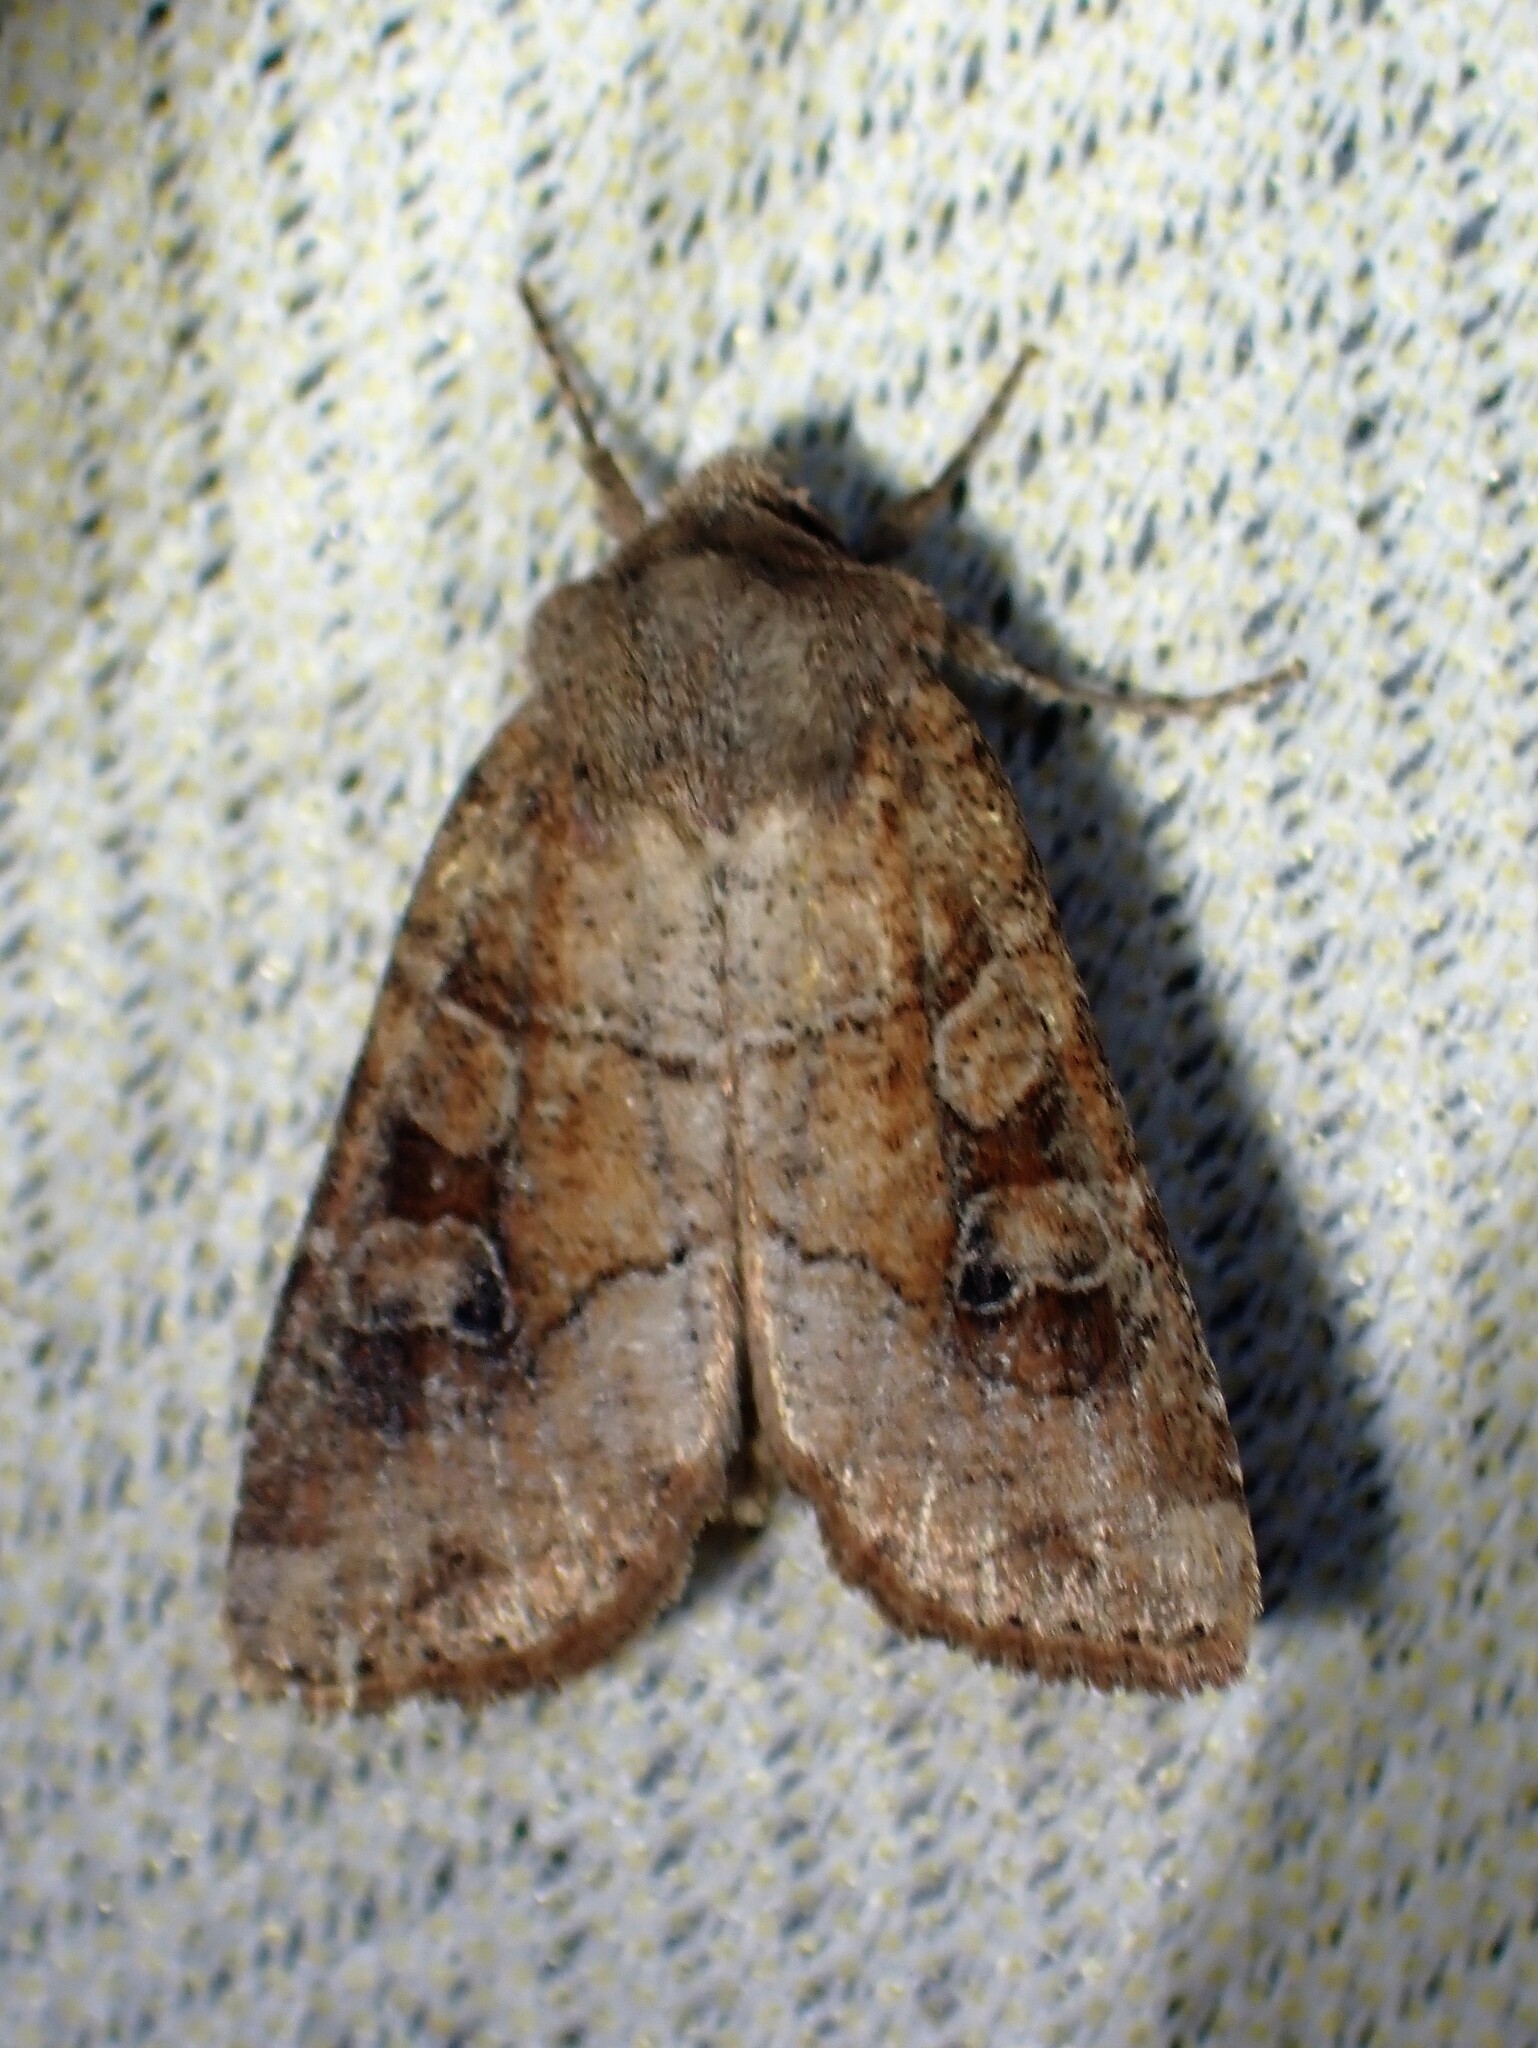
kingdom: Animalia
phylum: Arthropoda
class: Insecta
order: Lepidoptera
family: Noctuidae
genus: Crocigrapha
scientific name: Crocigrapha normani
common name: Norman's quaker
